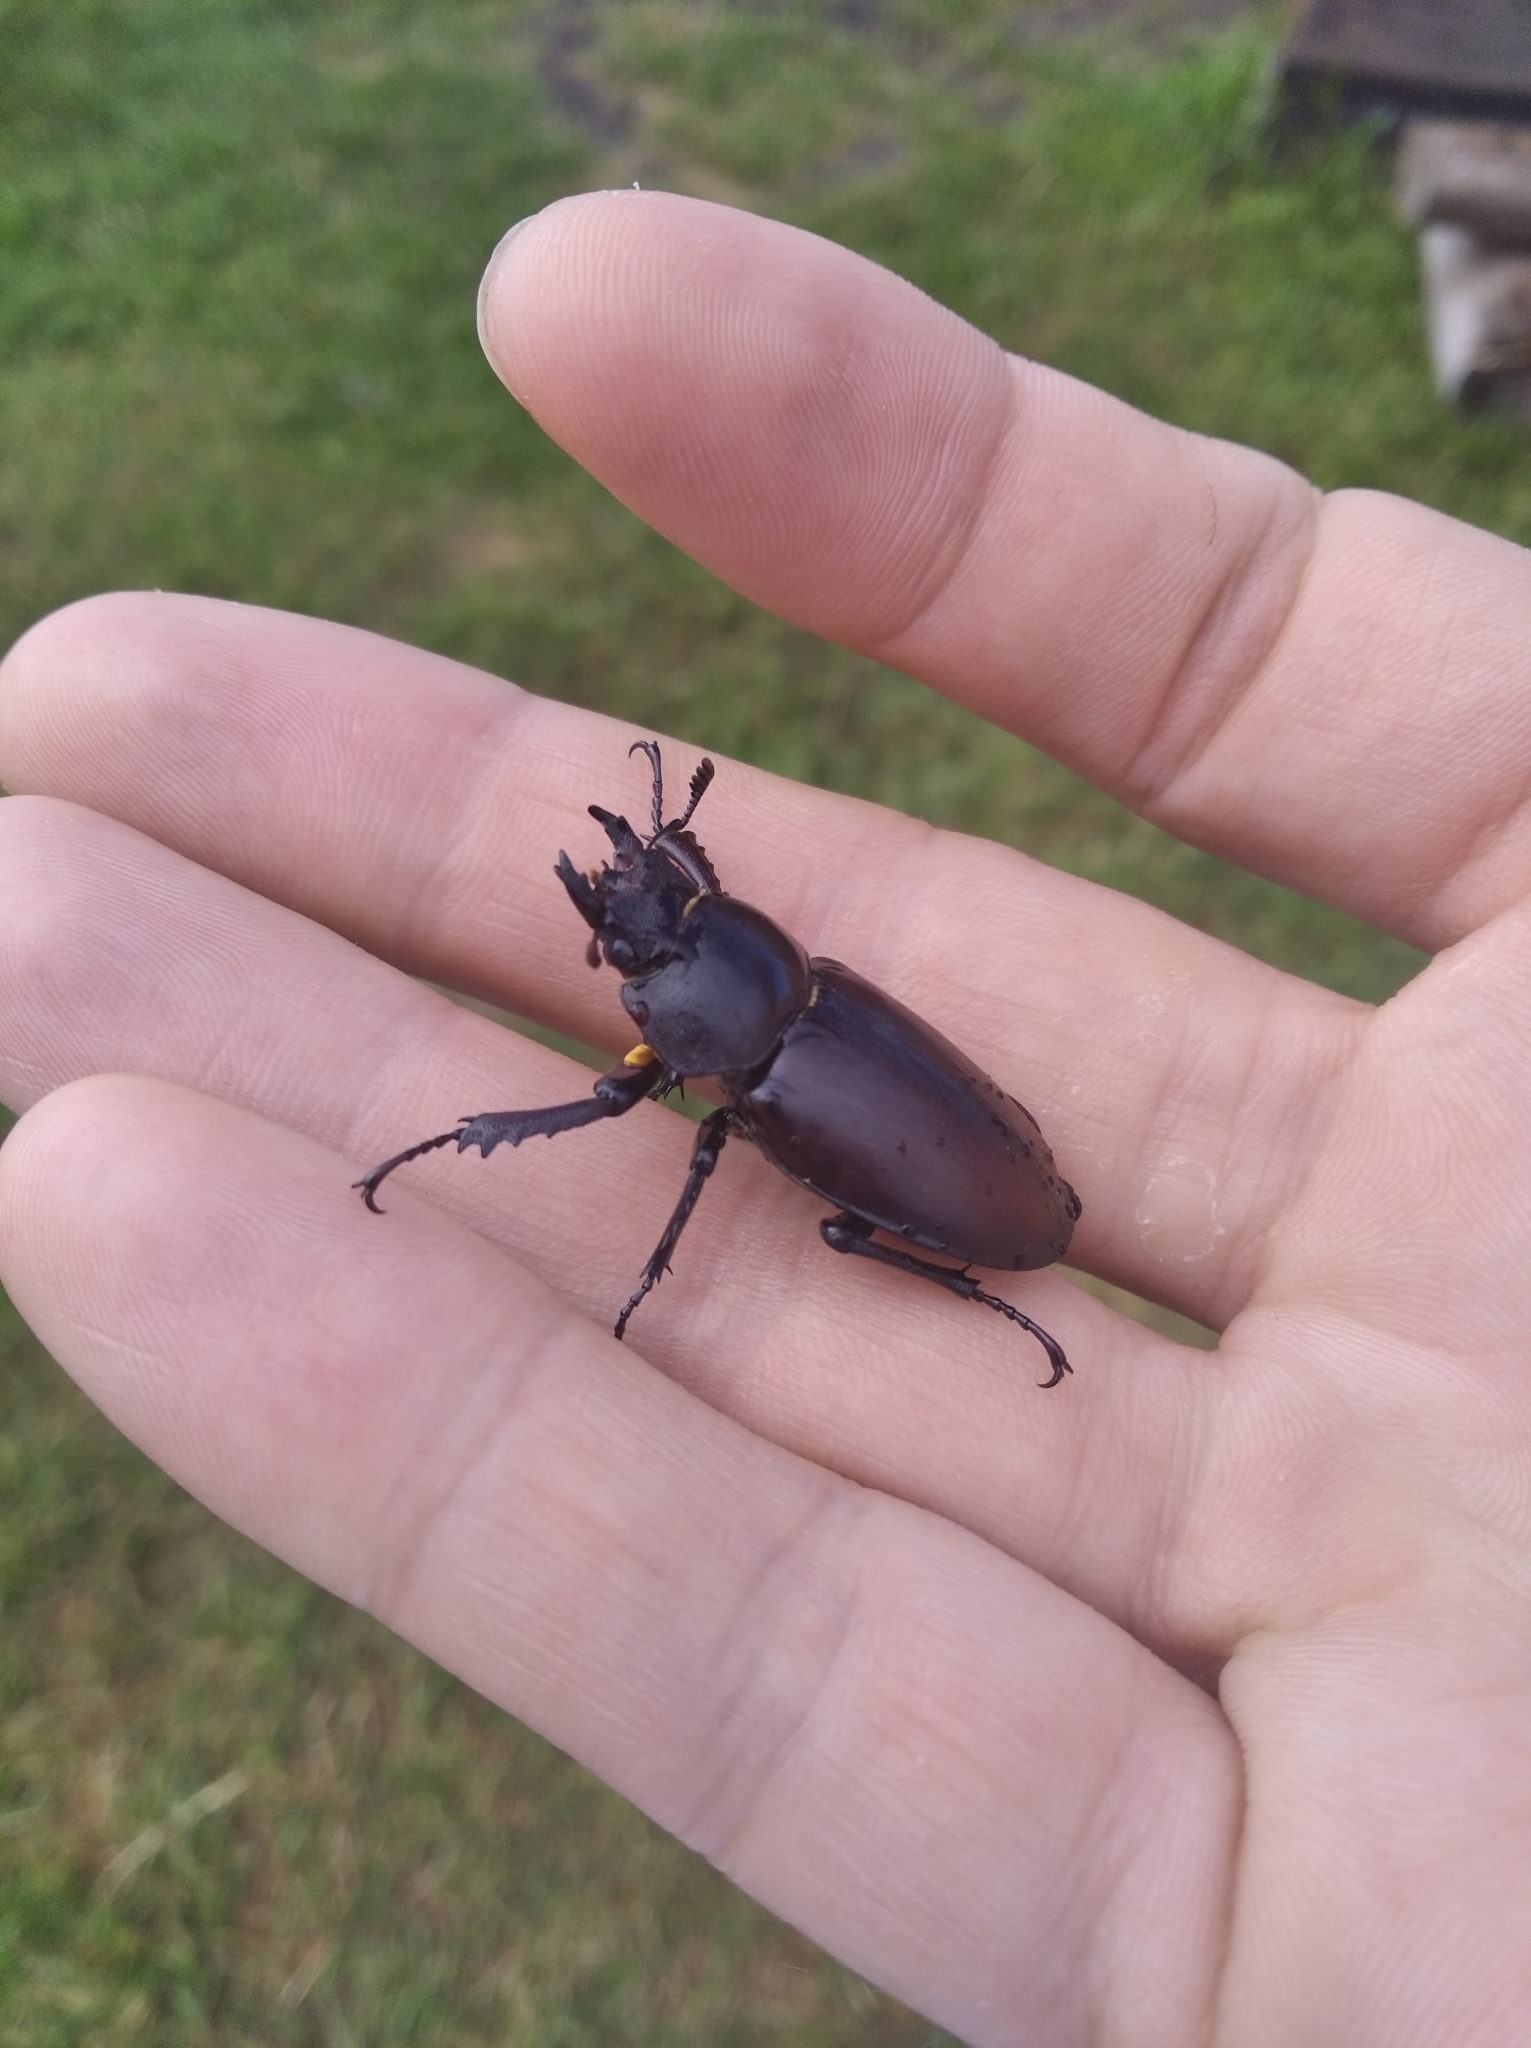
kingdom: Animalia
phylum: Arthropoda
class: Insecta
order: Coleoptera
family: Lucanidae
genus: Lucanus
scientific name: Lucanus cervus
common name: Stag beetle
